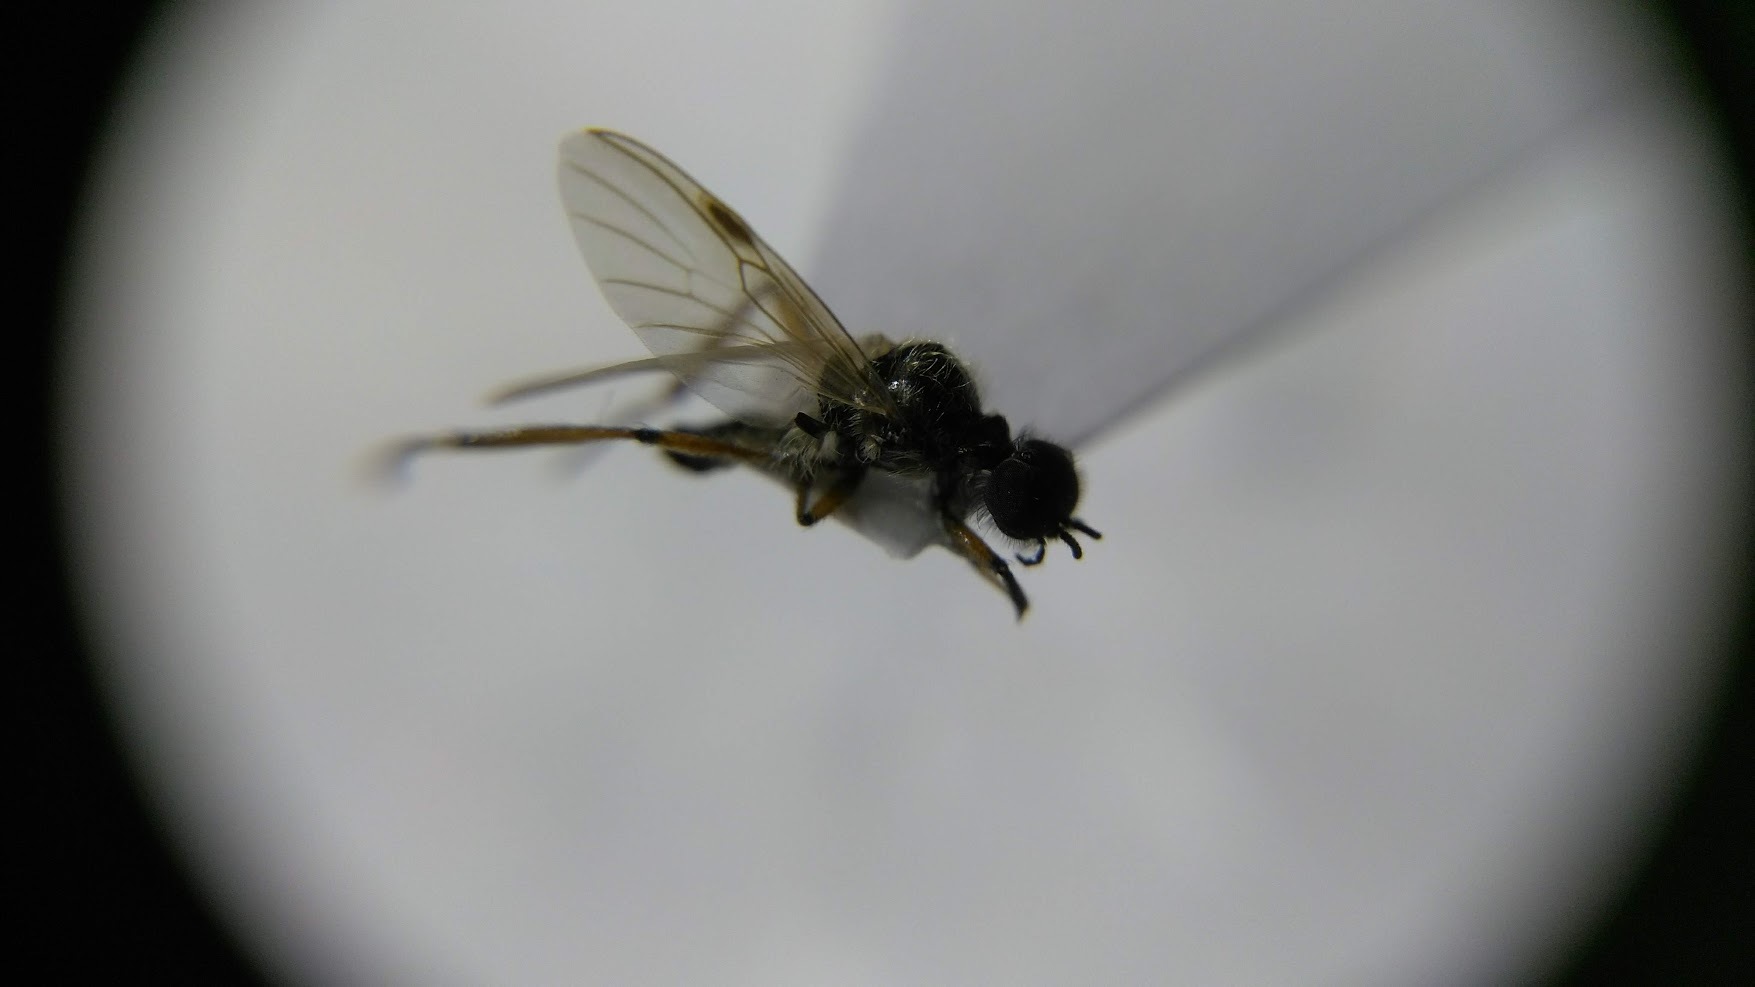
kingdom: Animalia
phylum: Arthropoda
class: Insecta
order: Diptera
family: Bibionidae
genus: Bibio
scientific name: Bibio
